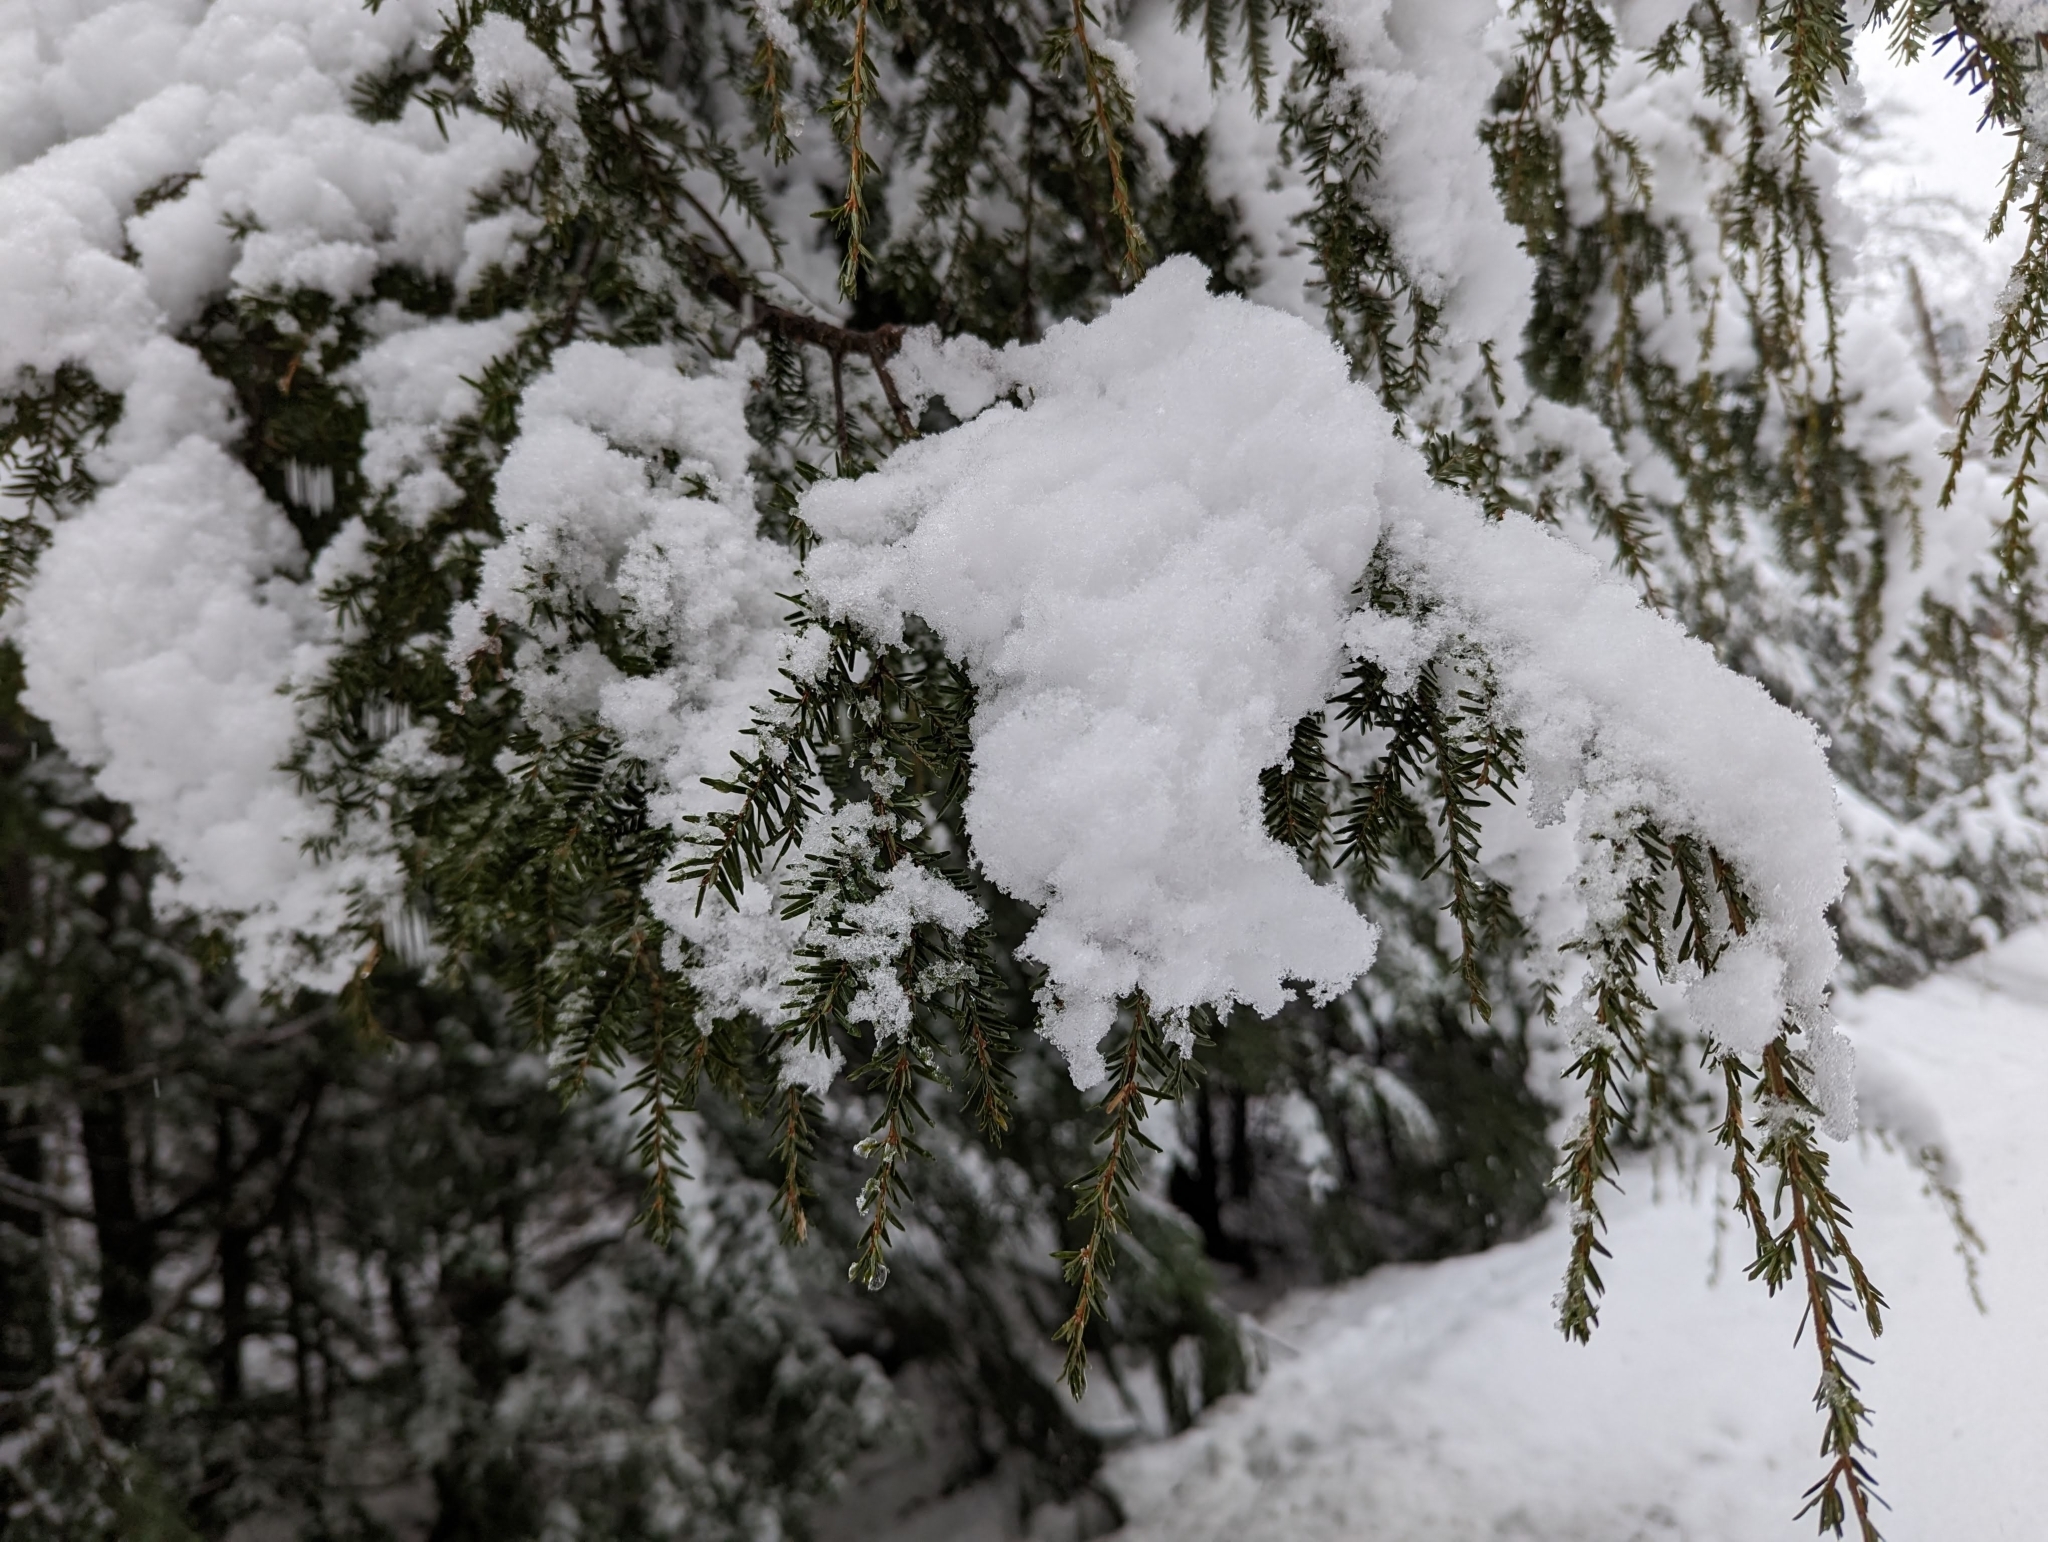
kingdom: Plantae
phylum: Tracheophyta
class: Pinopsida
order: Pinales
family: Pinaceae
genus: Tsuga
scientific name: Tsuga canadensis
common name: Eastern hemlock
